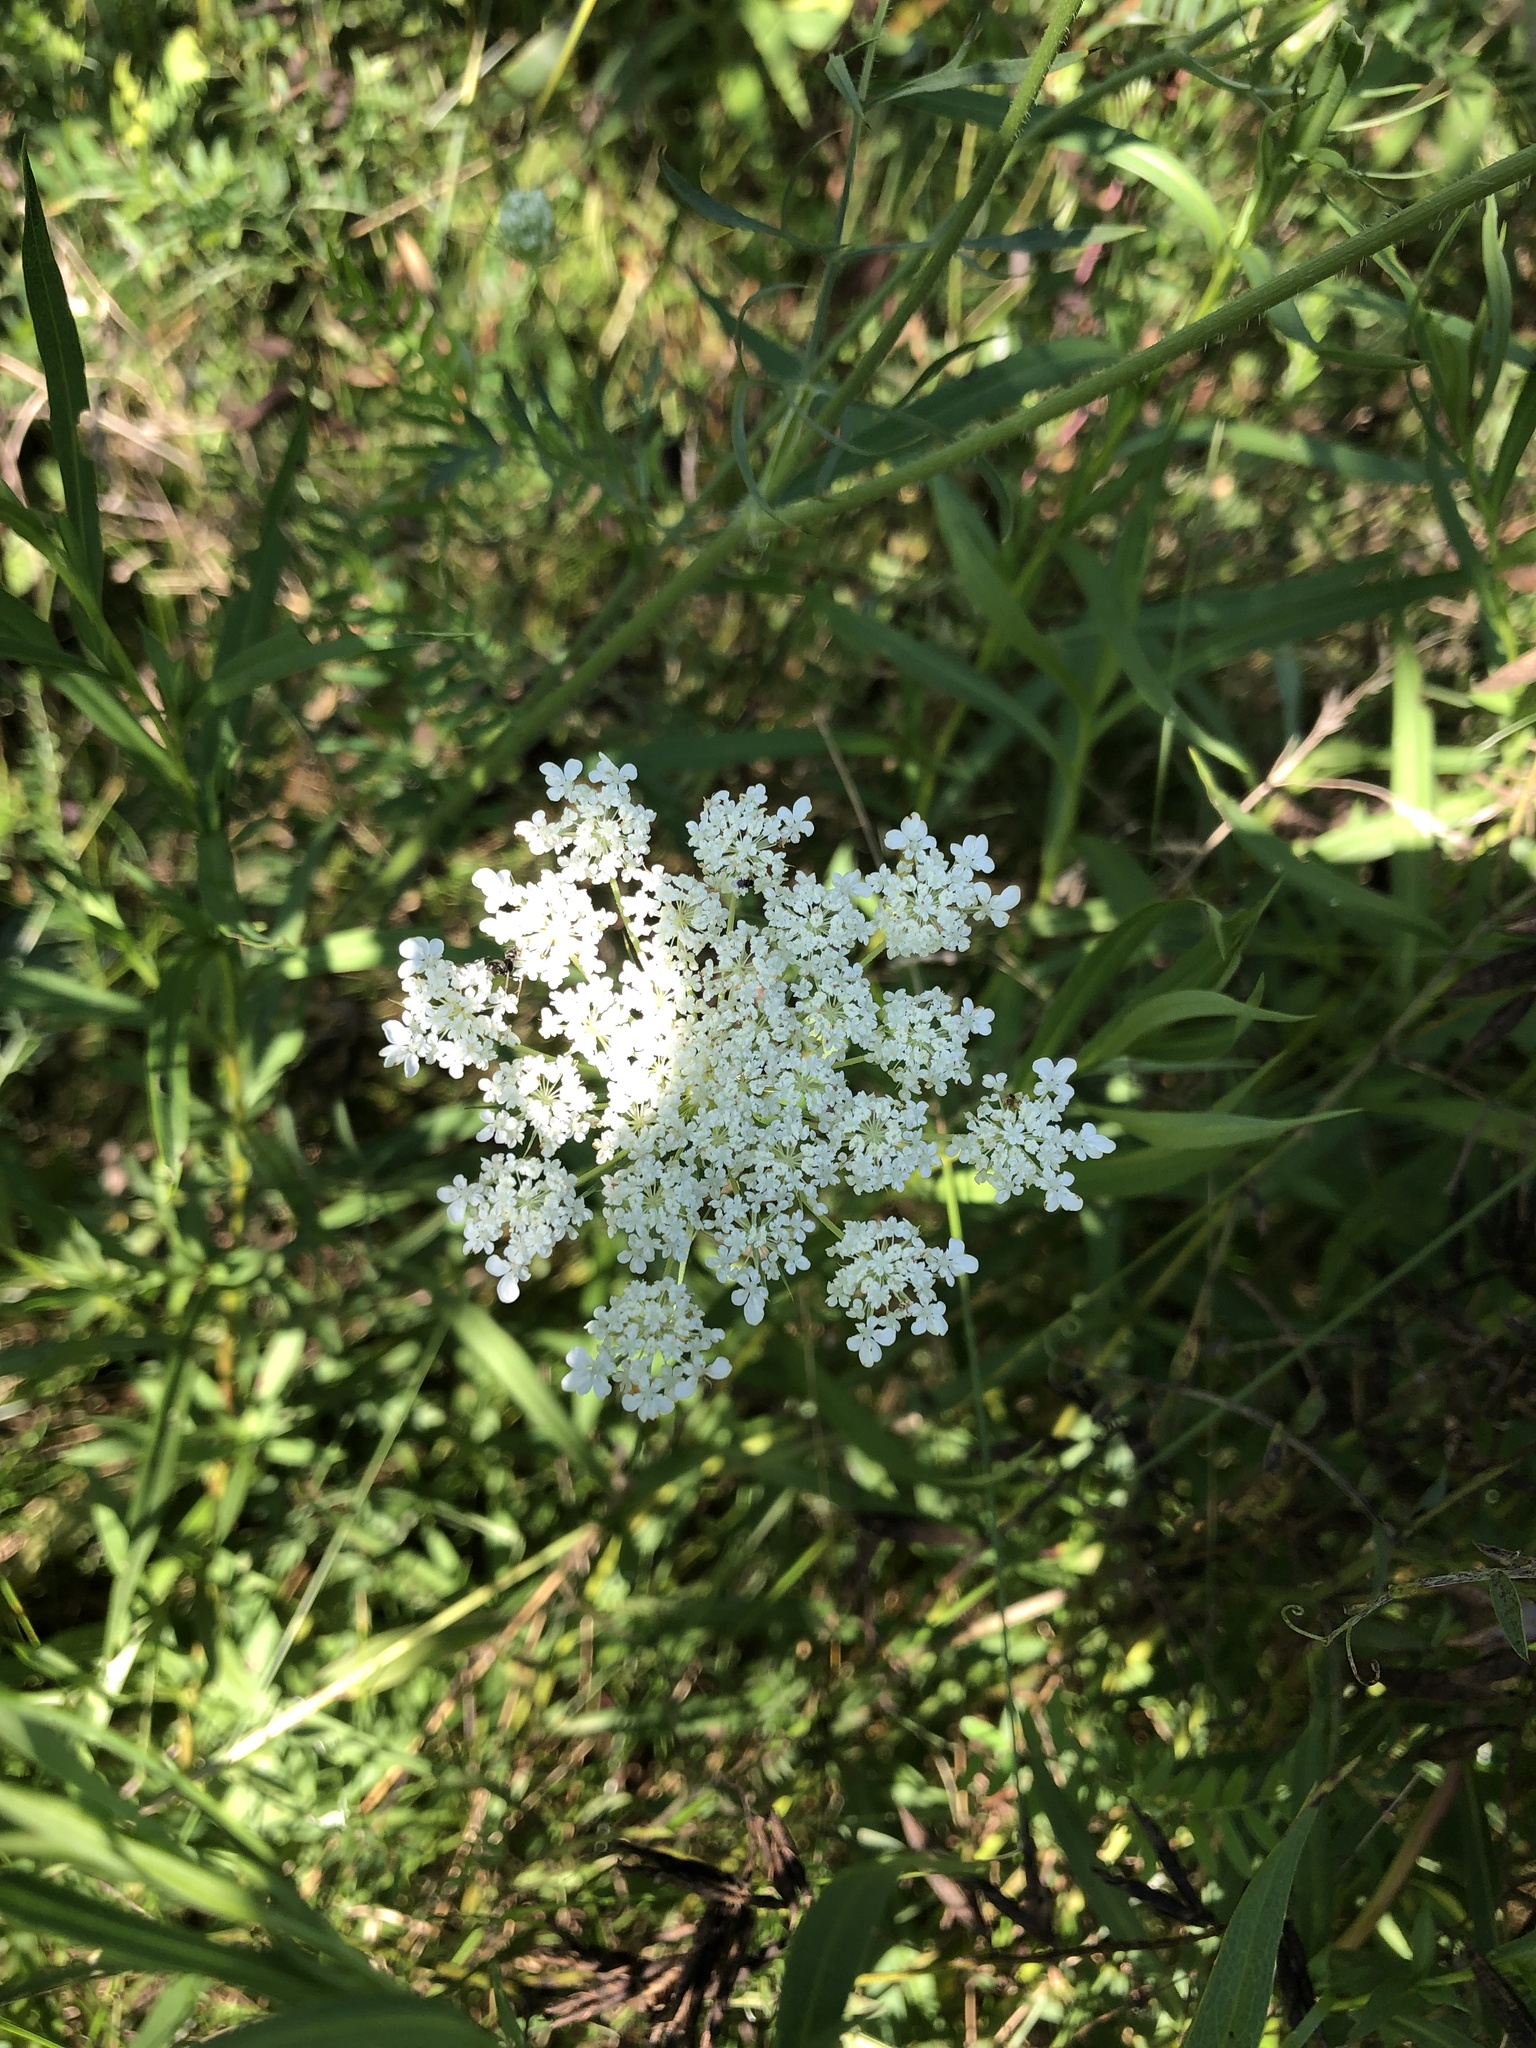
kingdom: Plantae
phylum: Tracheophyta
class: Magnoliopsida
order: Apiales
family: Apiaceae
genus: Daucus
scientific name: Daucus carota
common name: Wild carrot
